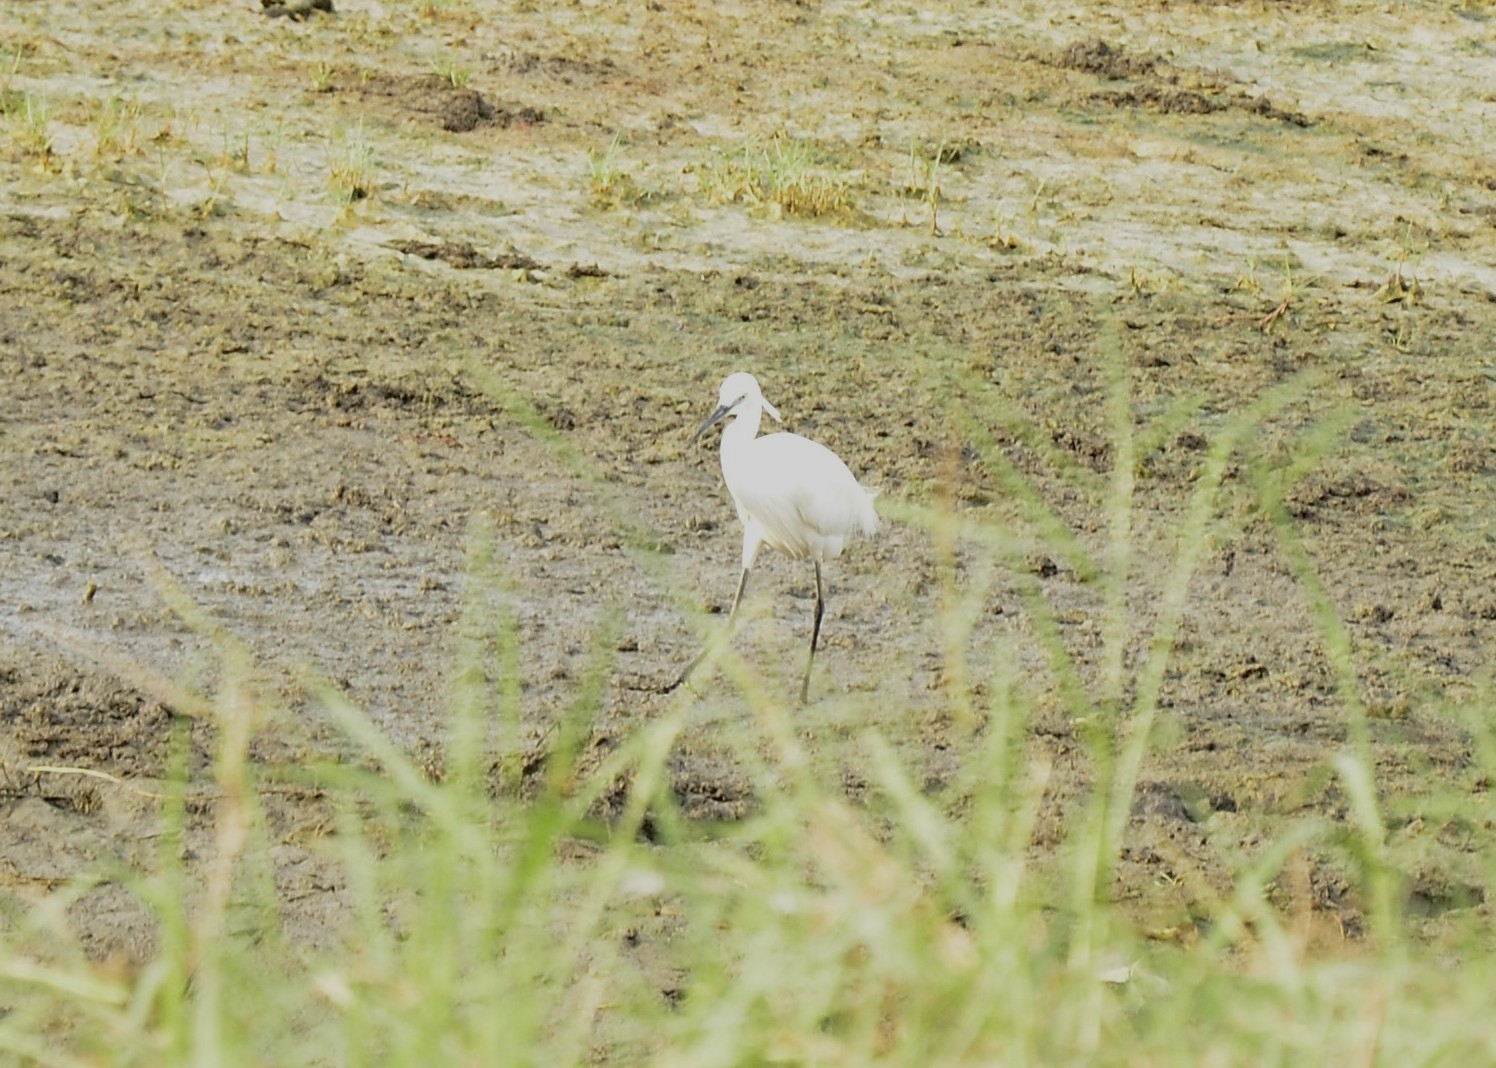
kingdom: Animalia
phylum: Chordata
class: Aves
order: Pelecaniformes
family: Ardeidae
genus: Egretta
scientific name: Egretta garzetta
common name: Little egret
